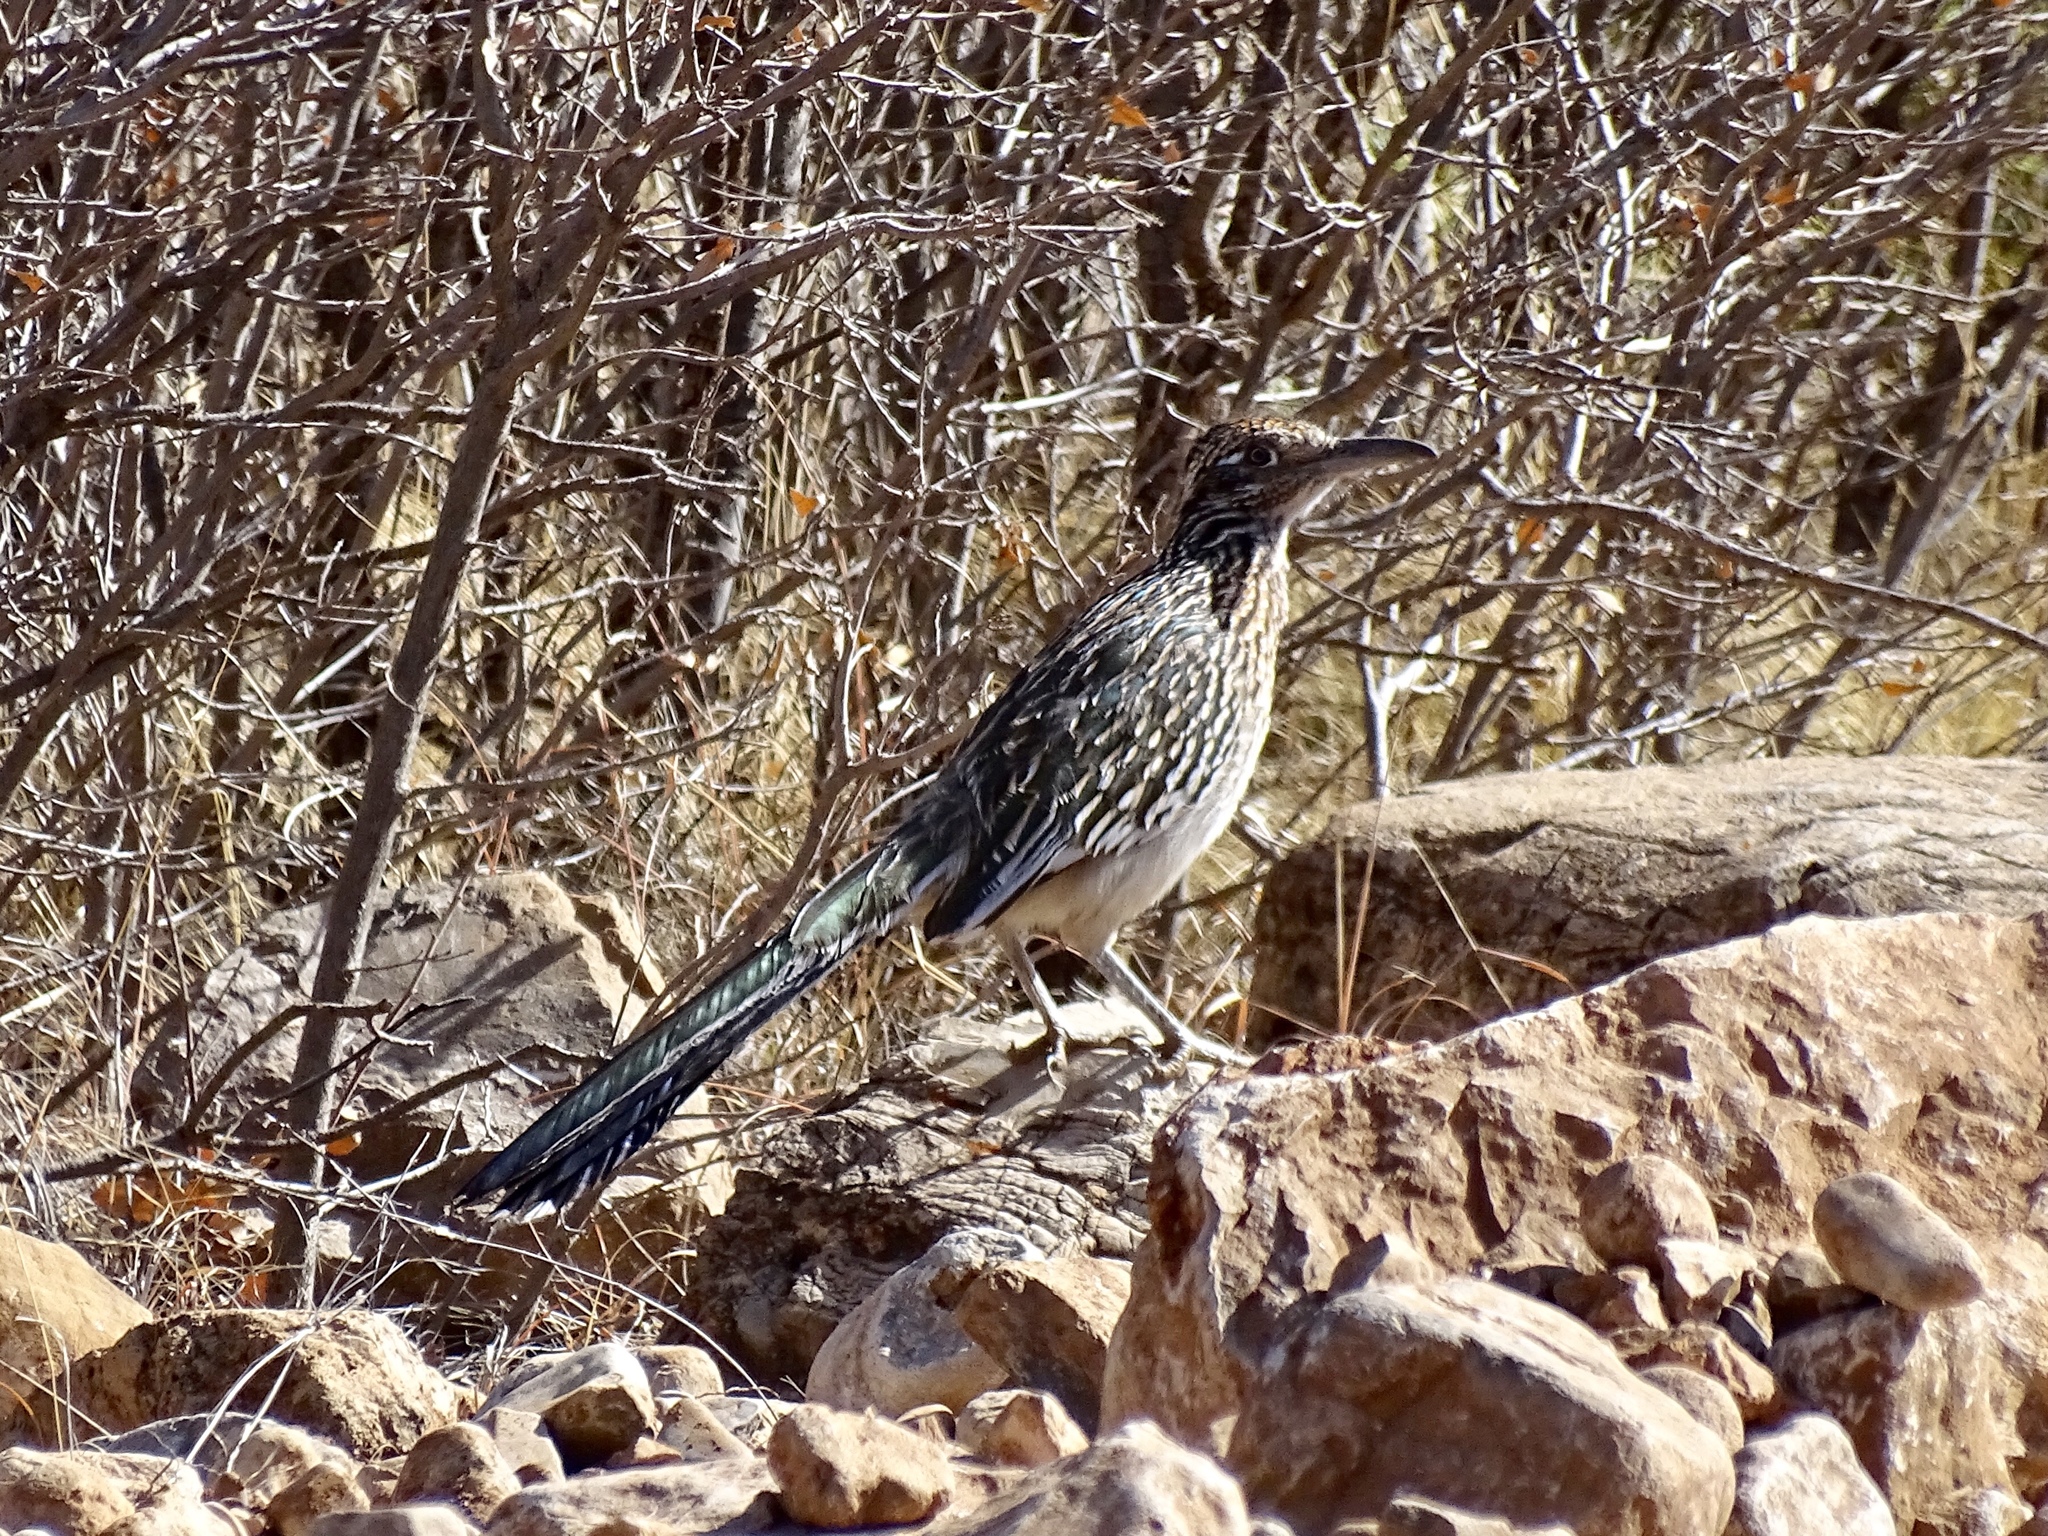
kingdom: Animalia
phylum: Chordata
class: Aves
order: Cuculiformes
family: Cuculidae
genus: Geococcyx
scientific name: Geococcyx californianus
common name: Greater roadrunner
